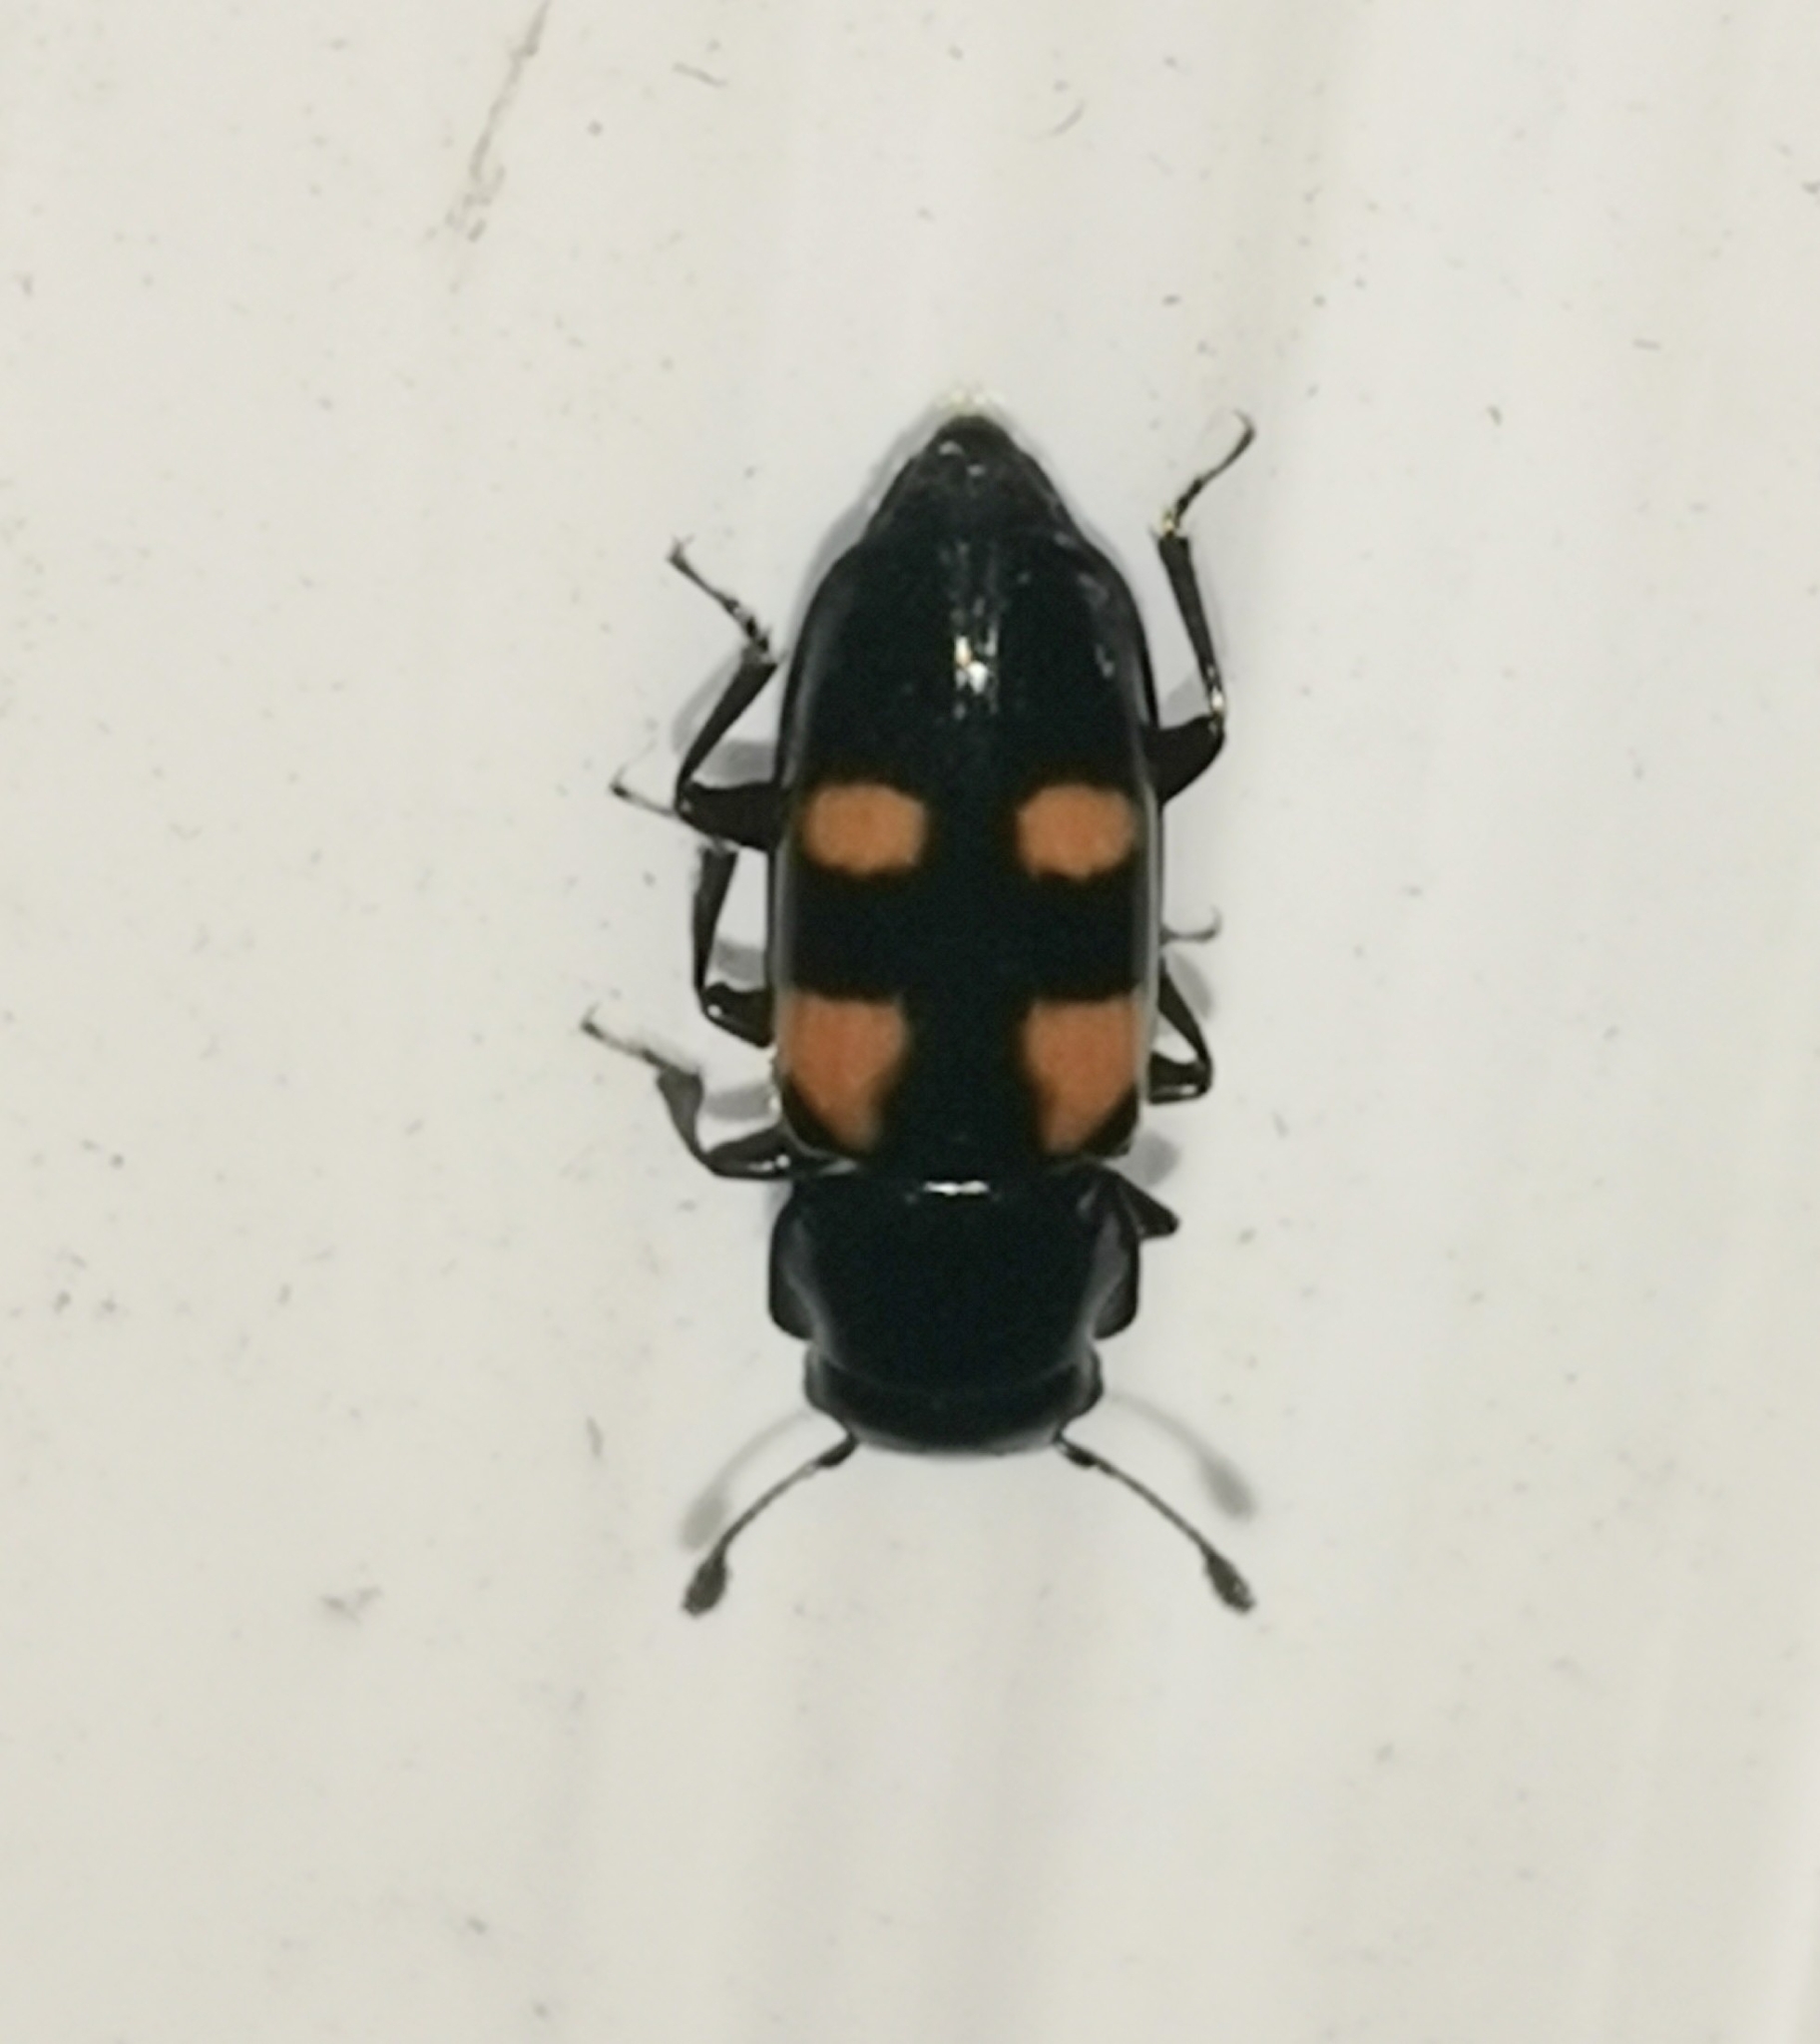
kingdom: Animalia
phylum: Arthropoda
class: Insecta
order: Coleoptera
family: Nitidulidae
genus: Glischrochilus
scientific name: Glischrochilus quadripunctatus
